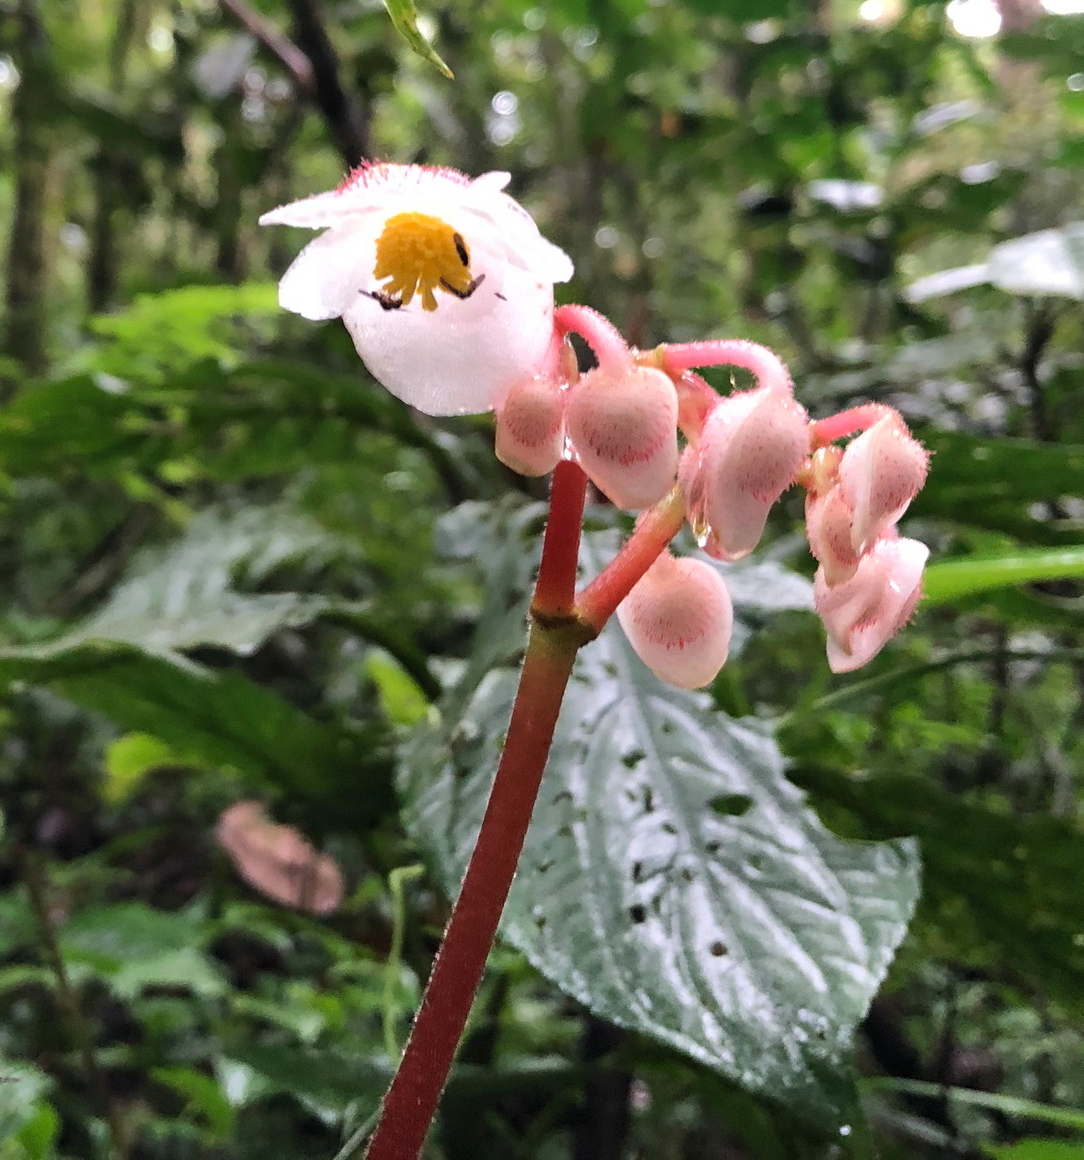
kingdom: Plantae
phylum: Tracheophyta
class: Magnoliopsida
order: Cucurbitales
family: Begoniaceae
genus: Begonia
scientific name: Begonia teysmanniana
